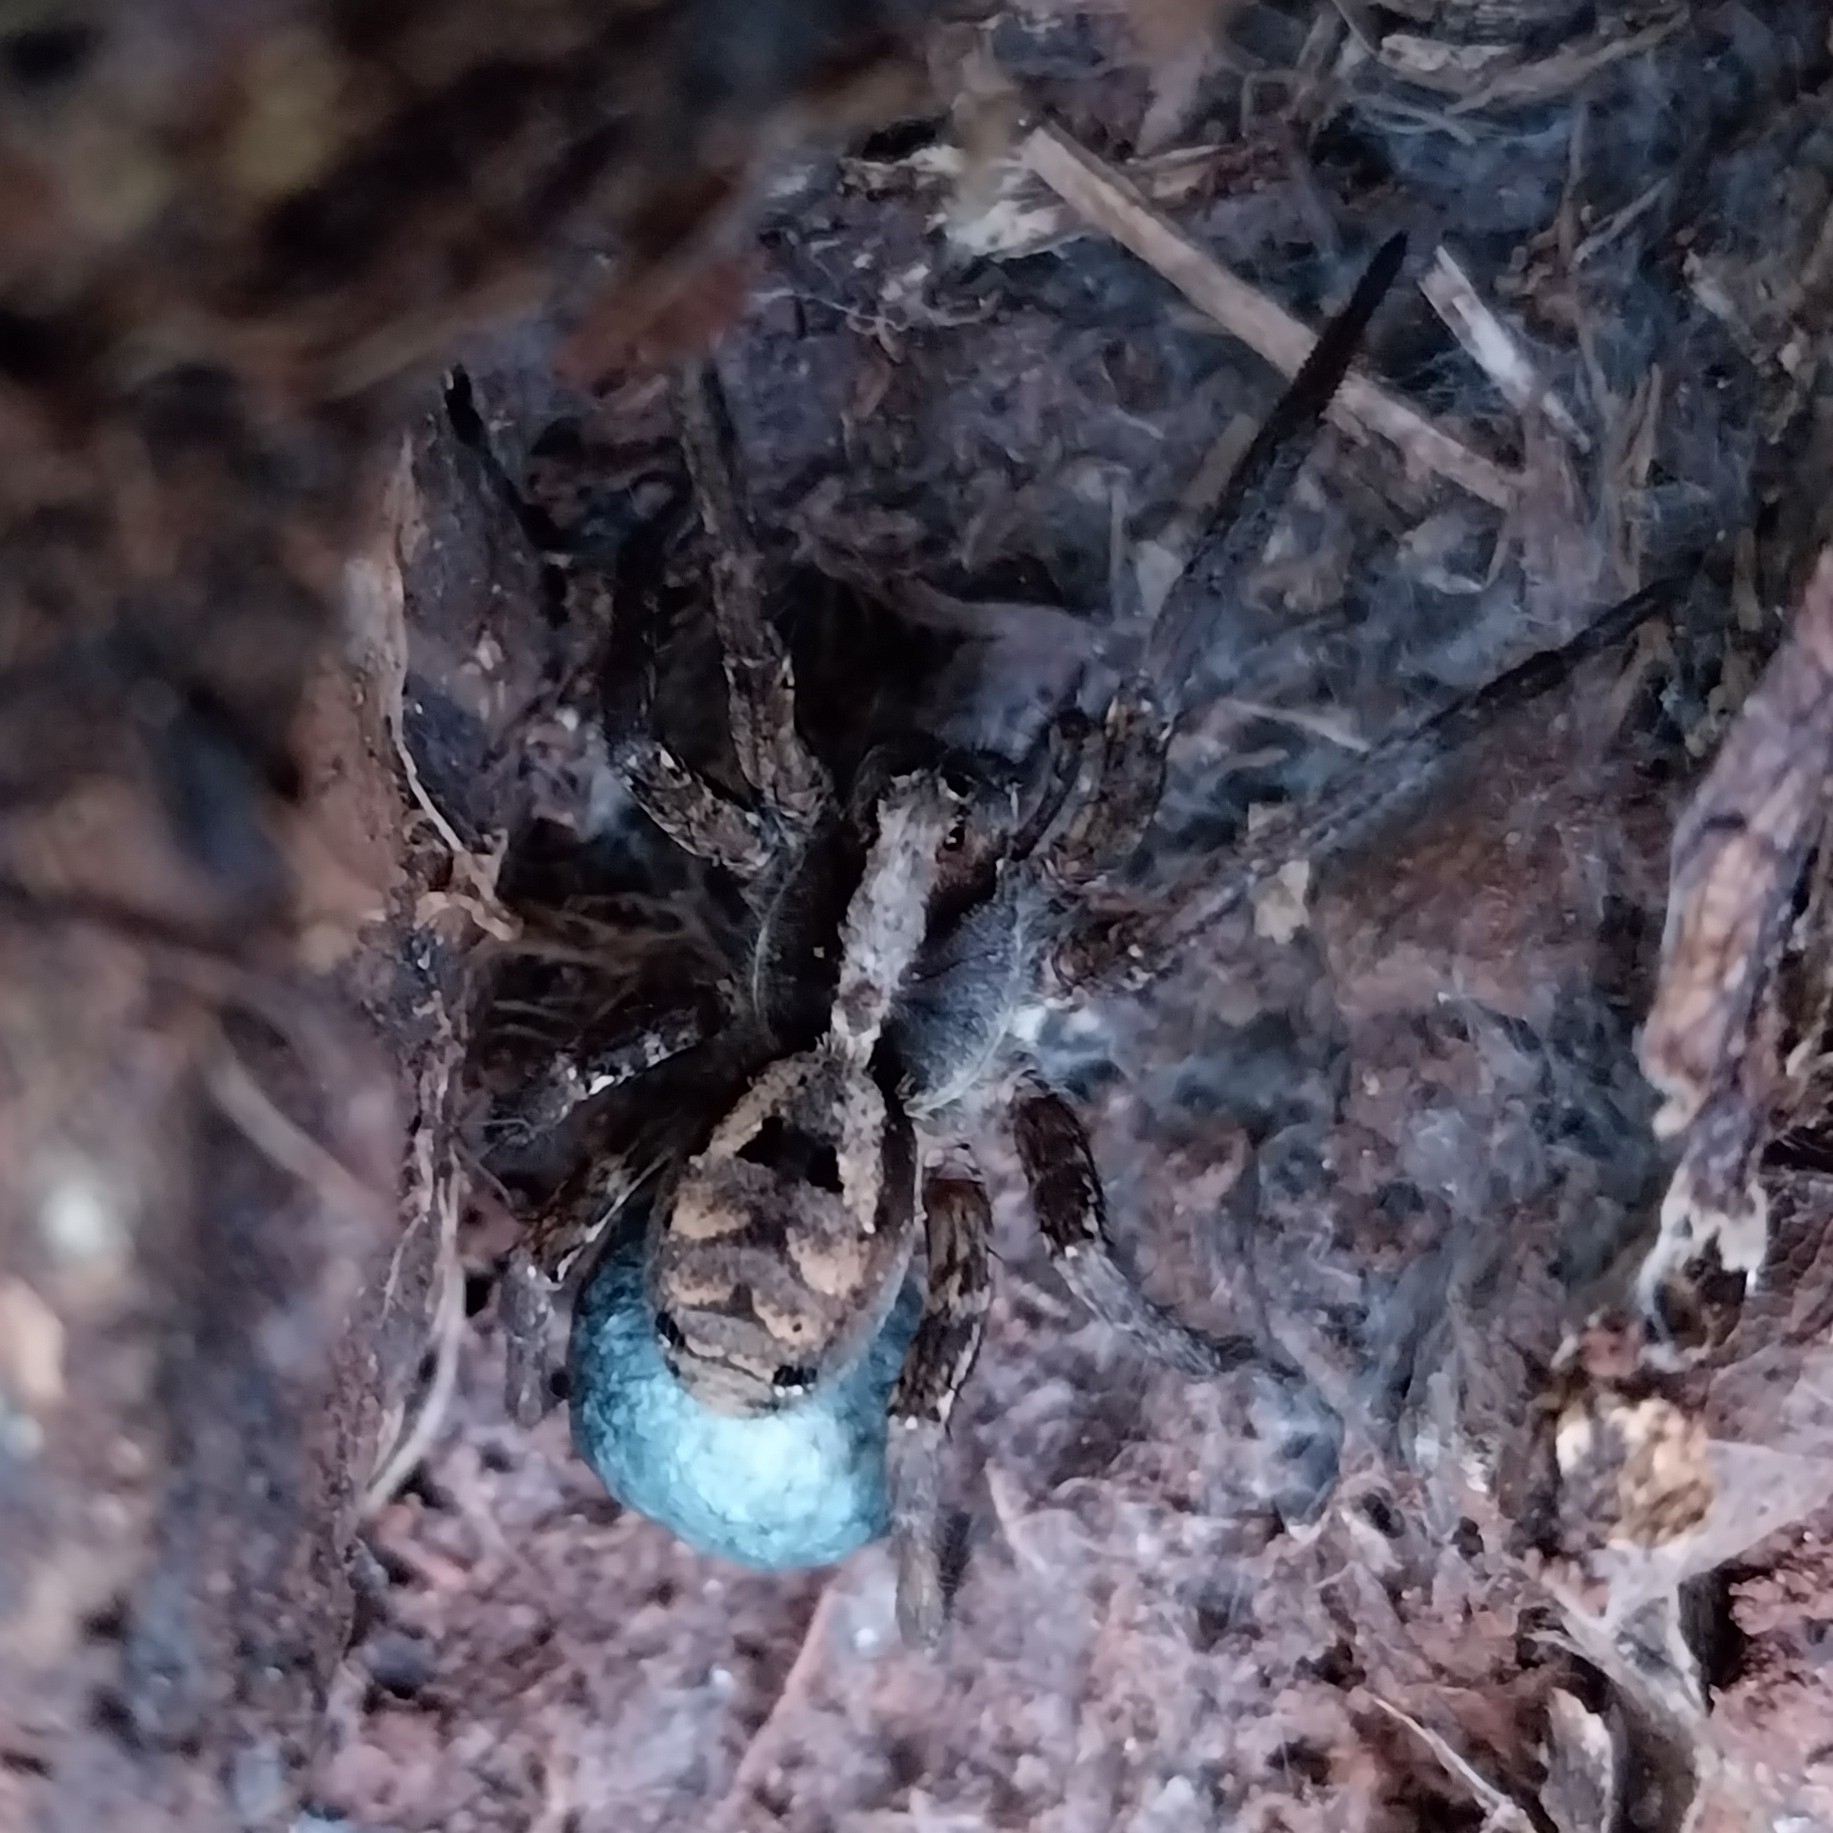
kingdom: Animalia
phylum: Arthropoda
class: Arachnida
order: Araneae
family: Lycosidae
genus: Hogna
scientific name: Hogna gumia
